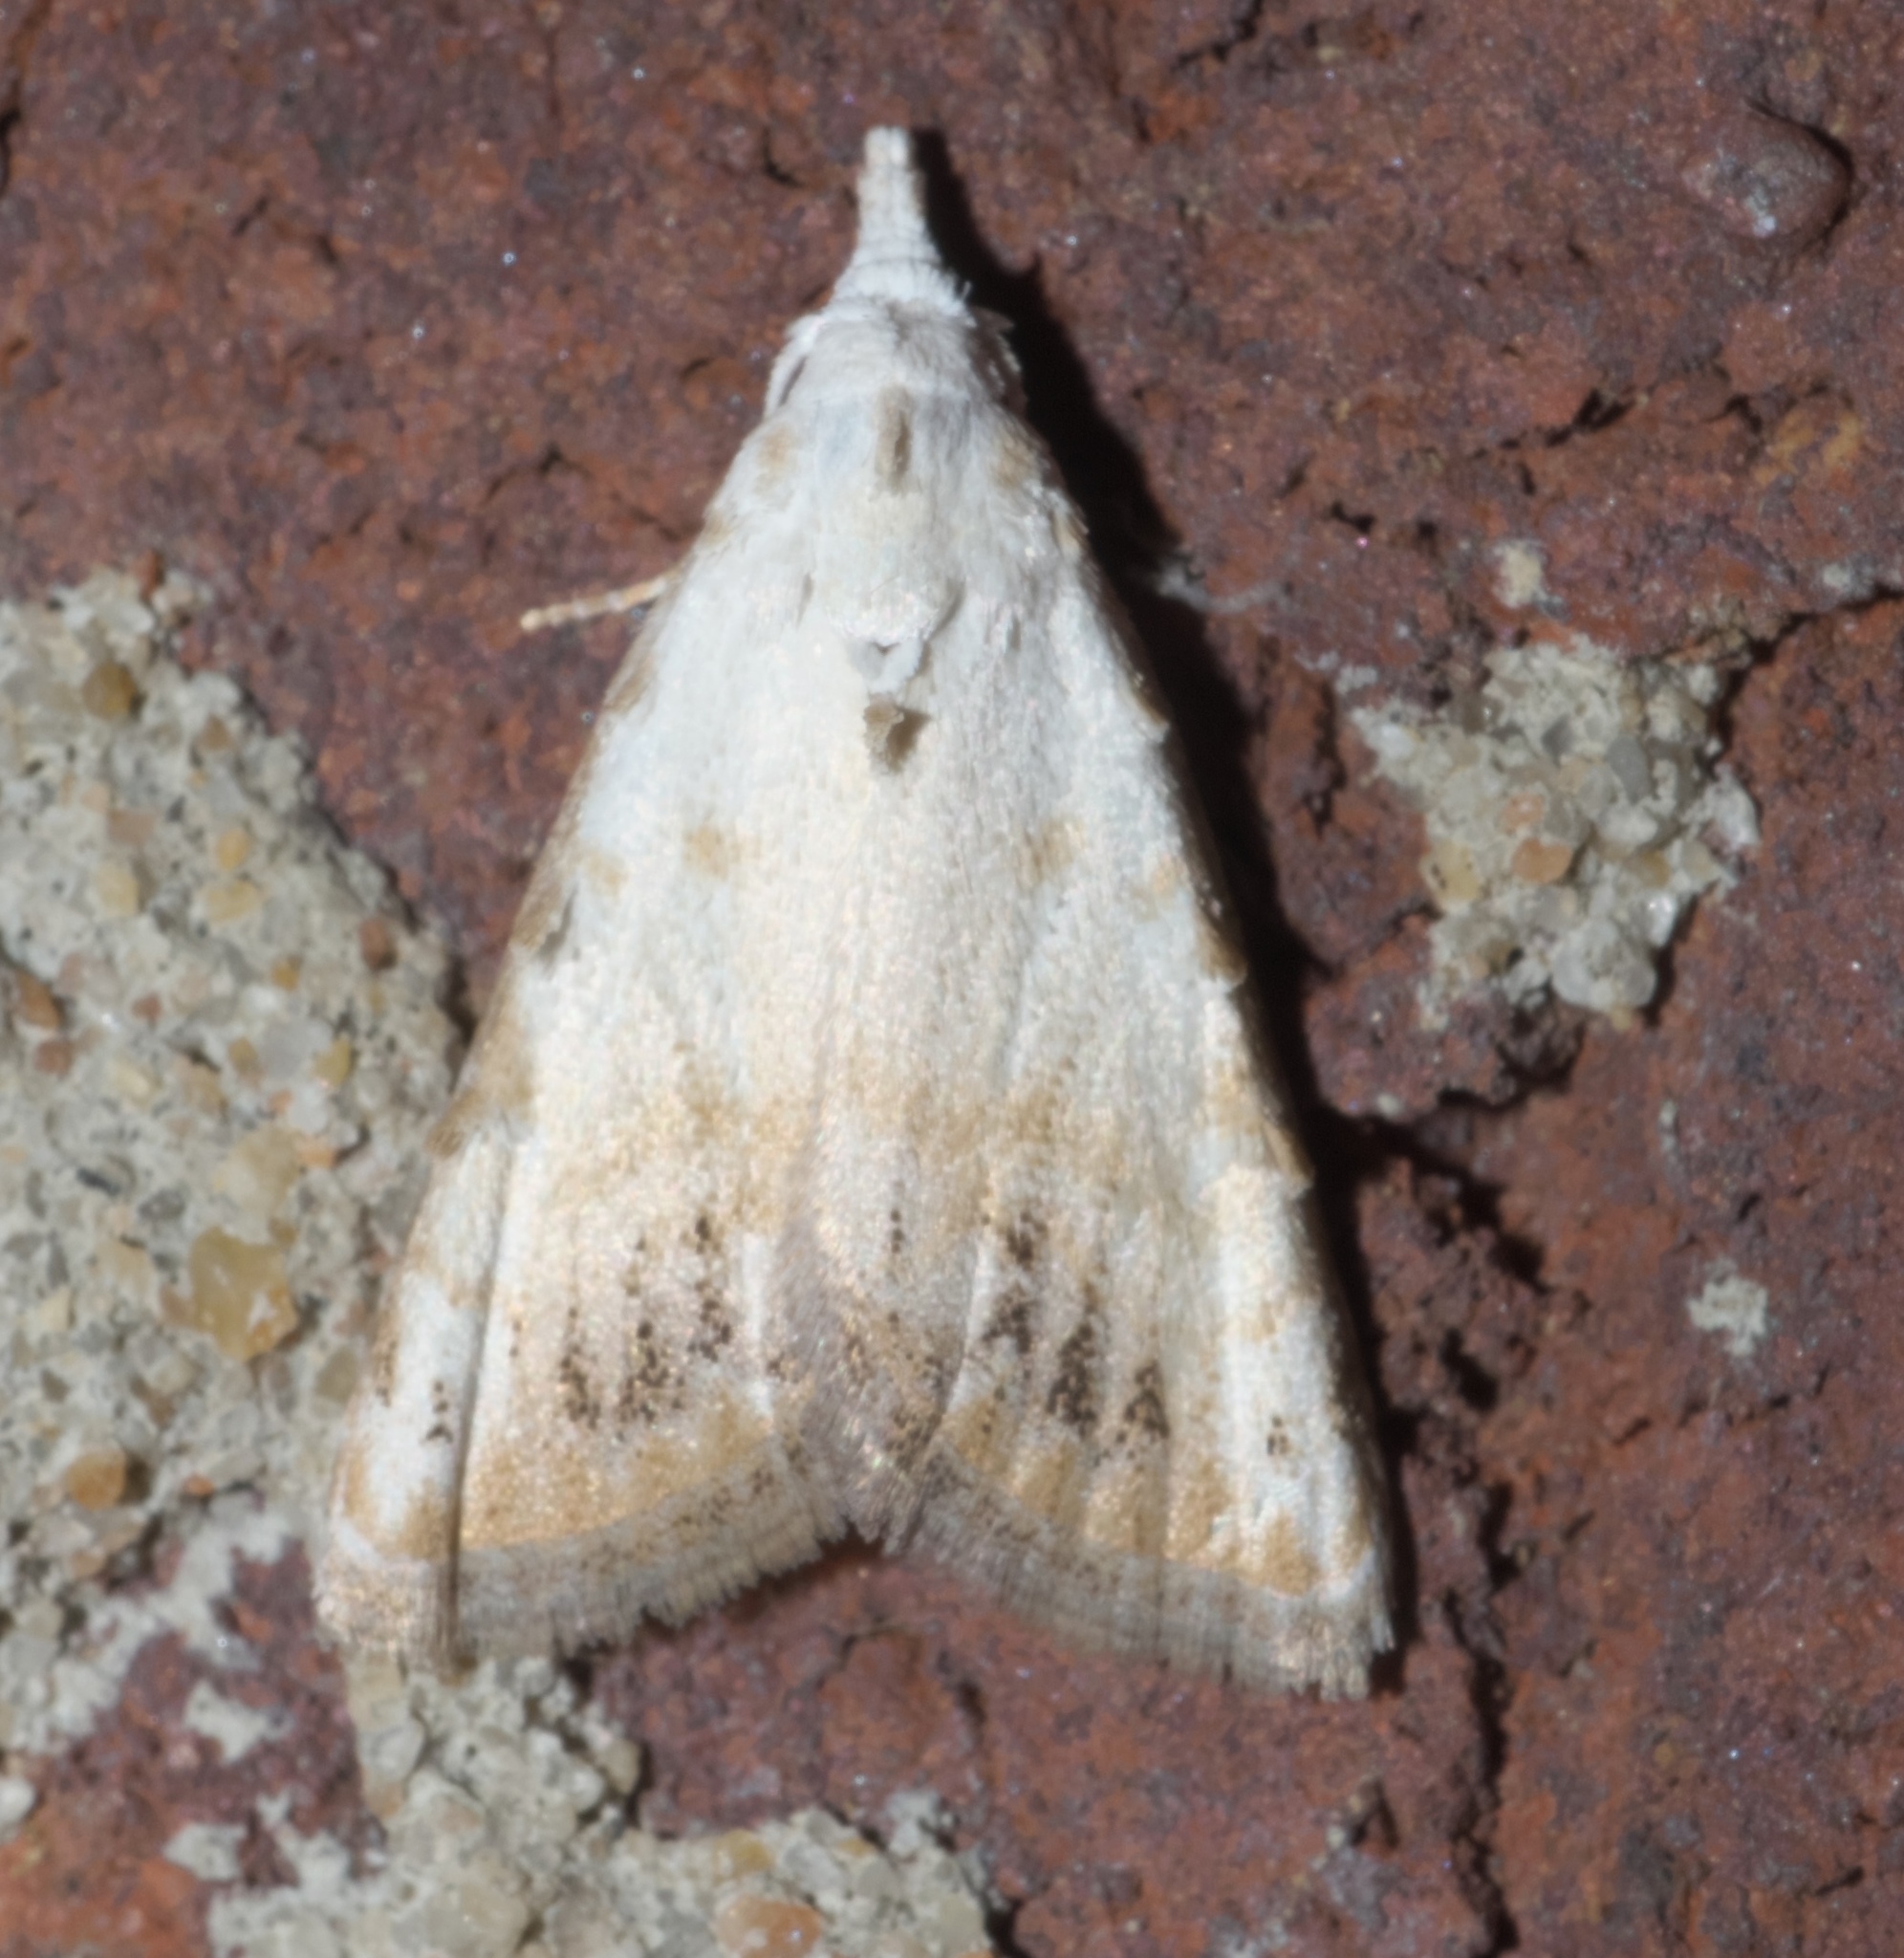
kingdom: Animalia
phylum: Arthropoda
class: Insecta
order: Lepidoptera
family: Nolidae
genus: Nola
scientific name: Nola cereella
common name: Sorghum webworm moth
